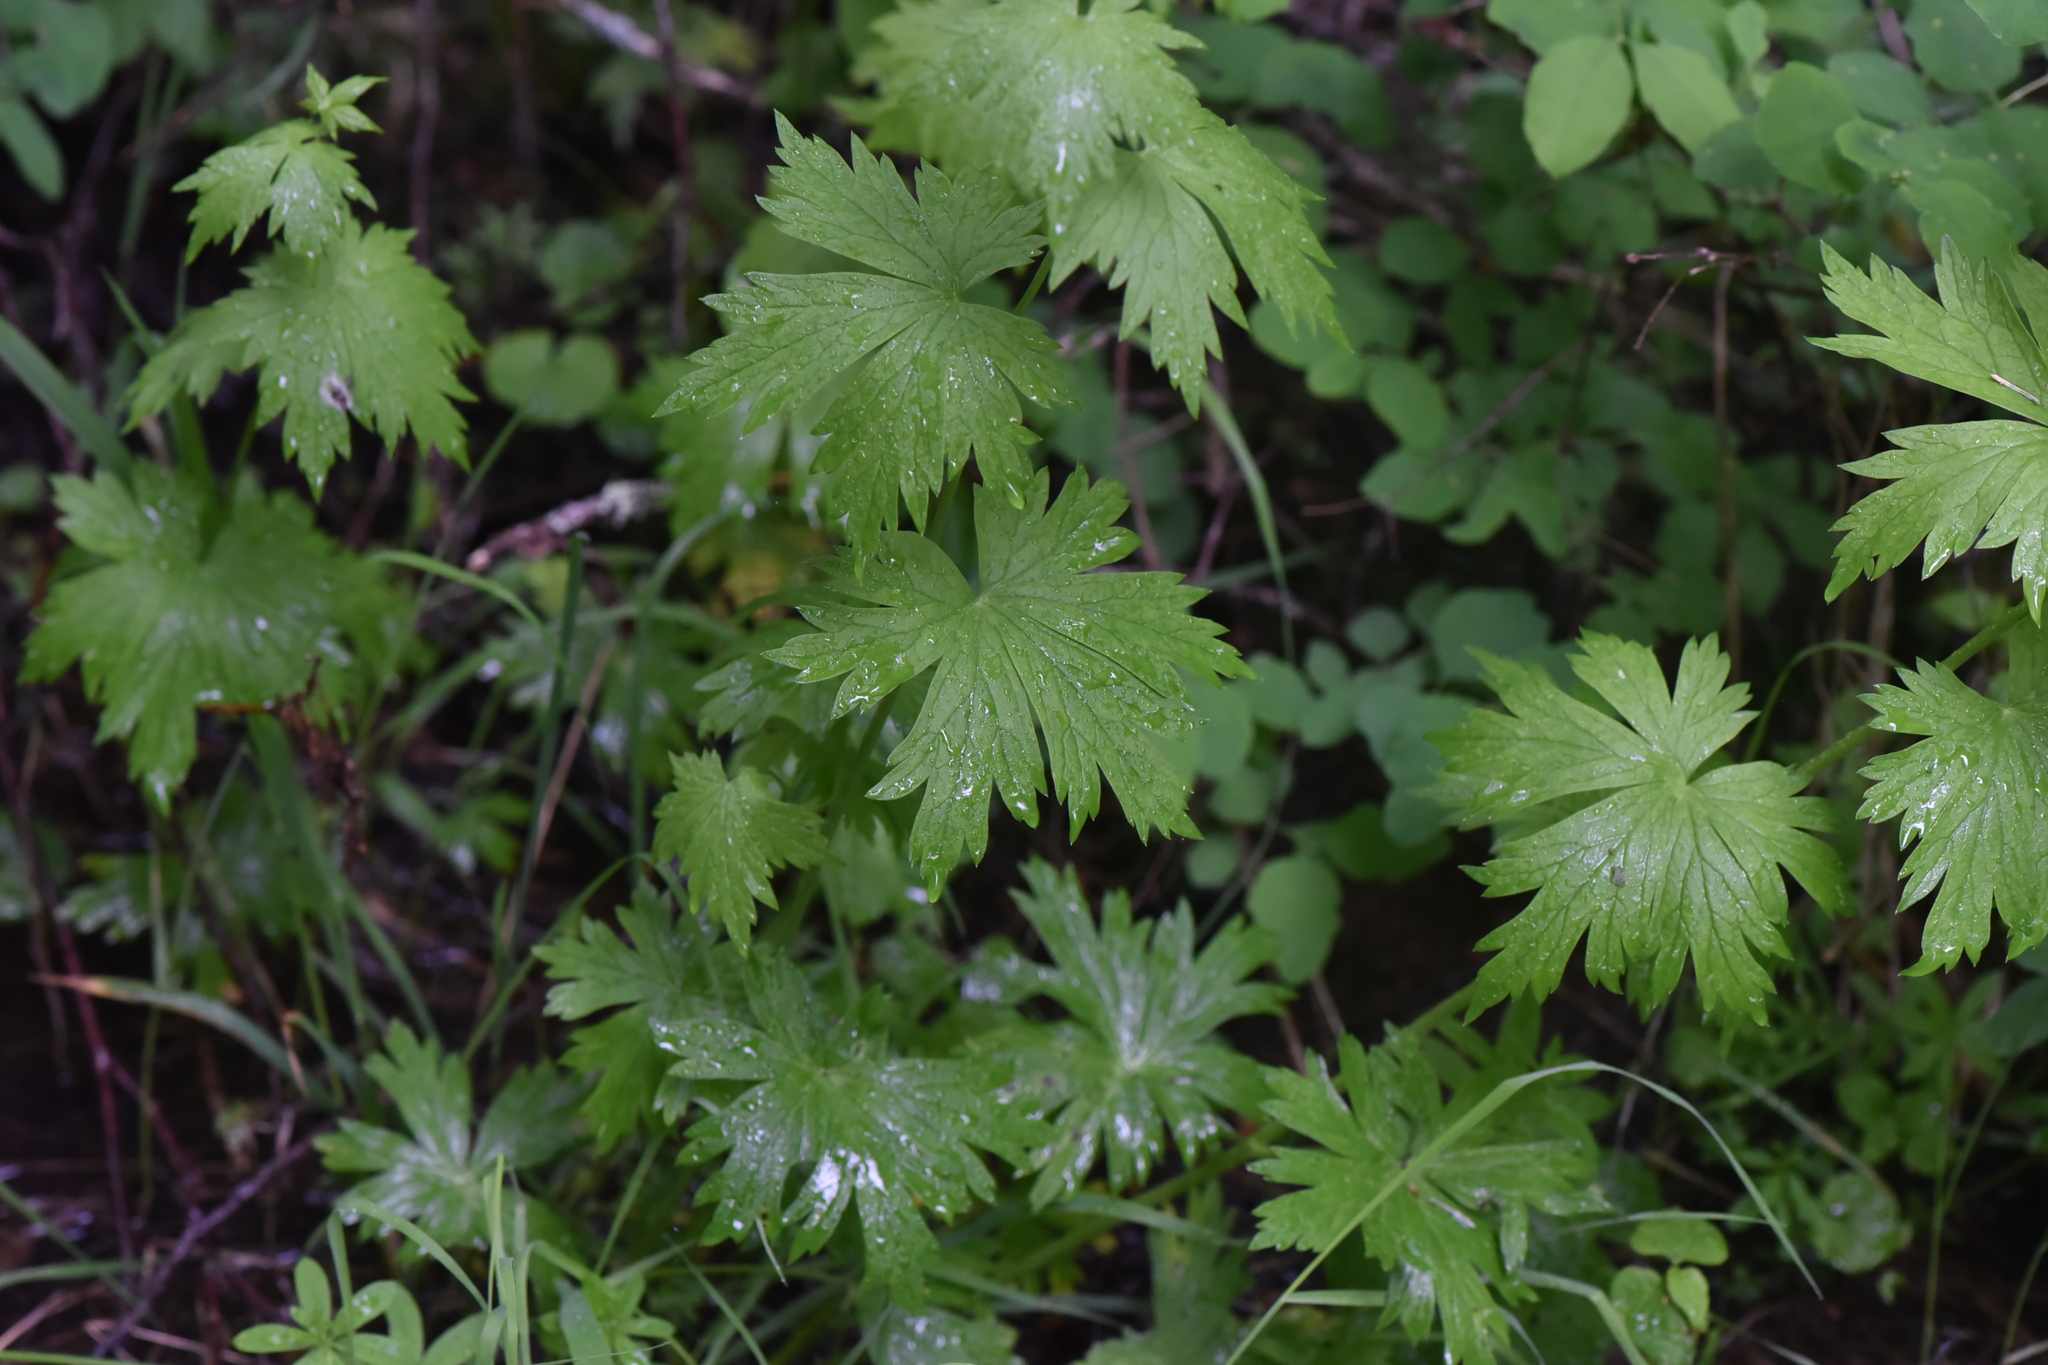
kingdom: Plantae
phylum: Tracheophyta
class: Magnoliopsida
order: Ranunculales
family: Ranunculaceae
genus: Aconitum
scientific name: Aconitum columbianum
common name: Columbia aconite
